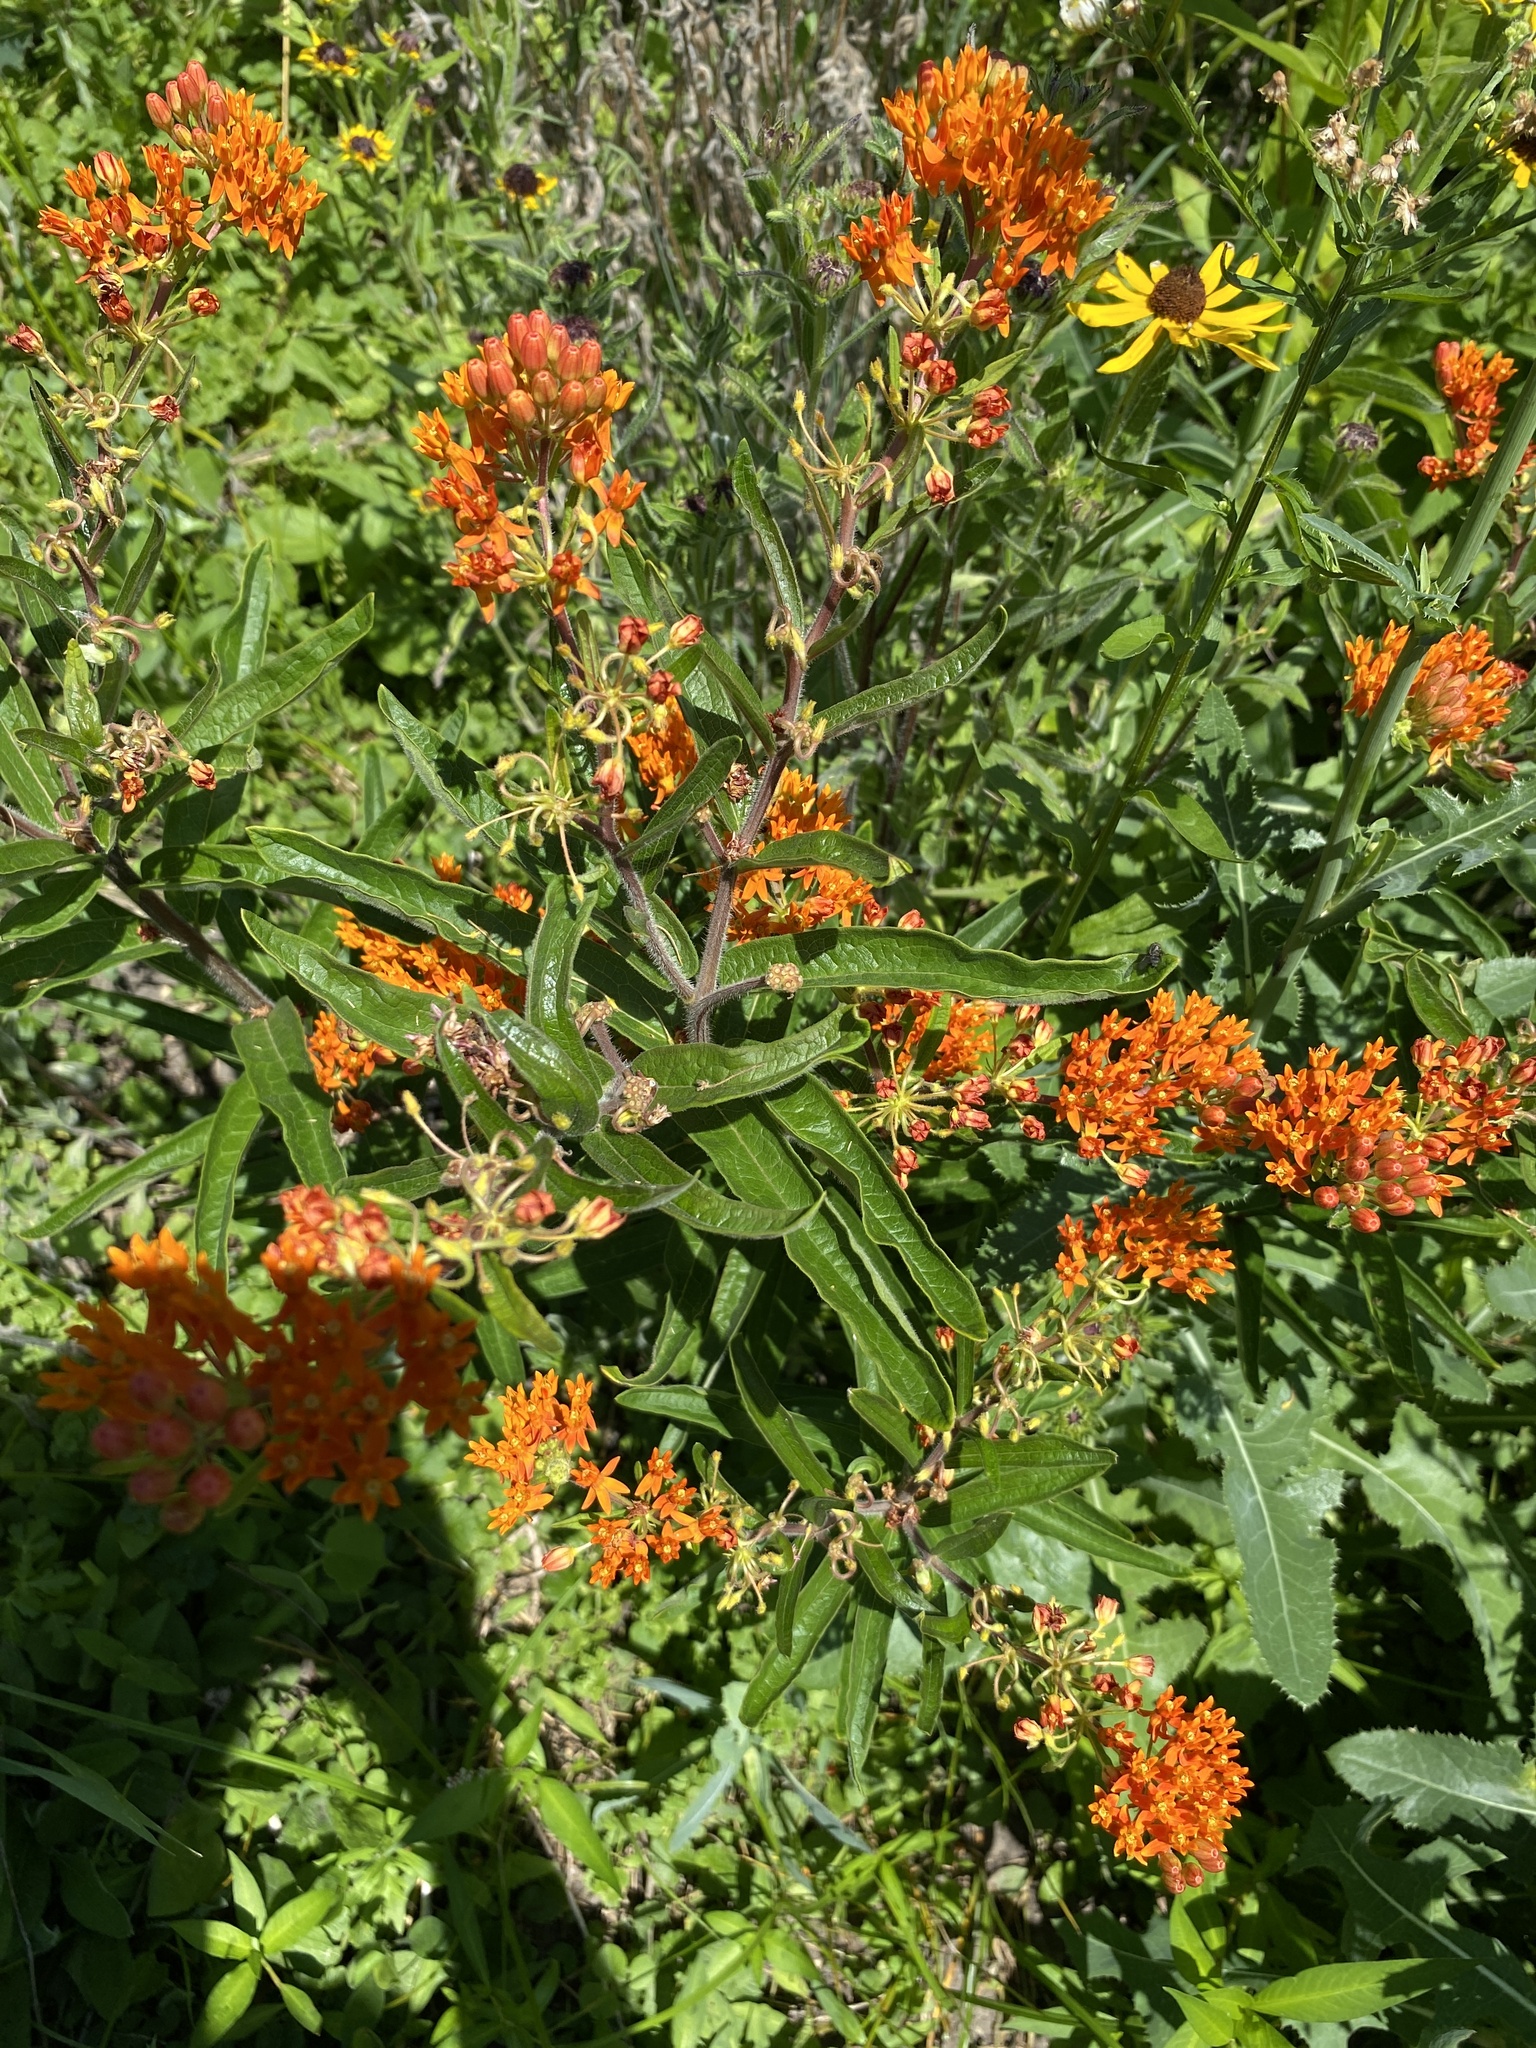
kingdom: Plantae
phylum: Tracheophyta
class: Magnoliopsida
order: Gentianales
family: Apocynaceae
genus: Asclepias
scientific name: Asclepias tuberosa
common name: Butterfly milkweed
